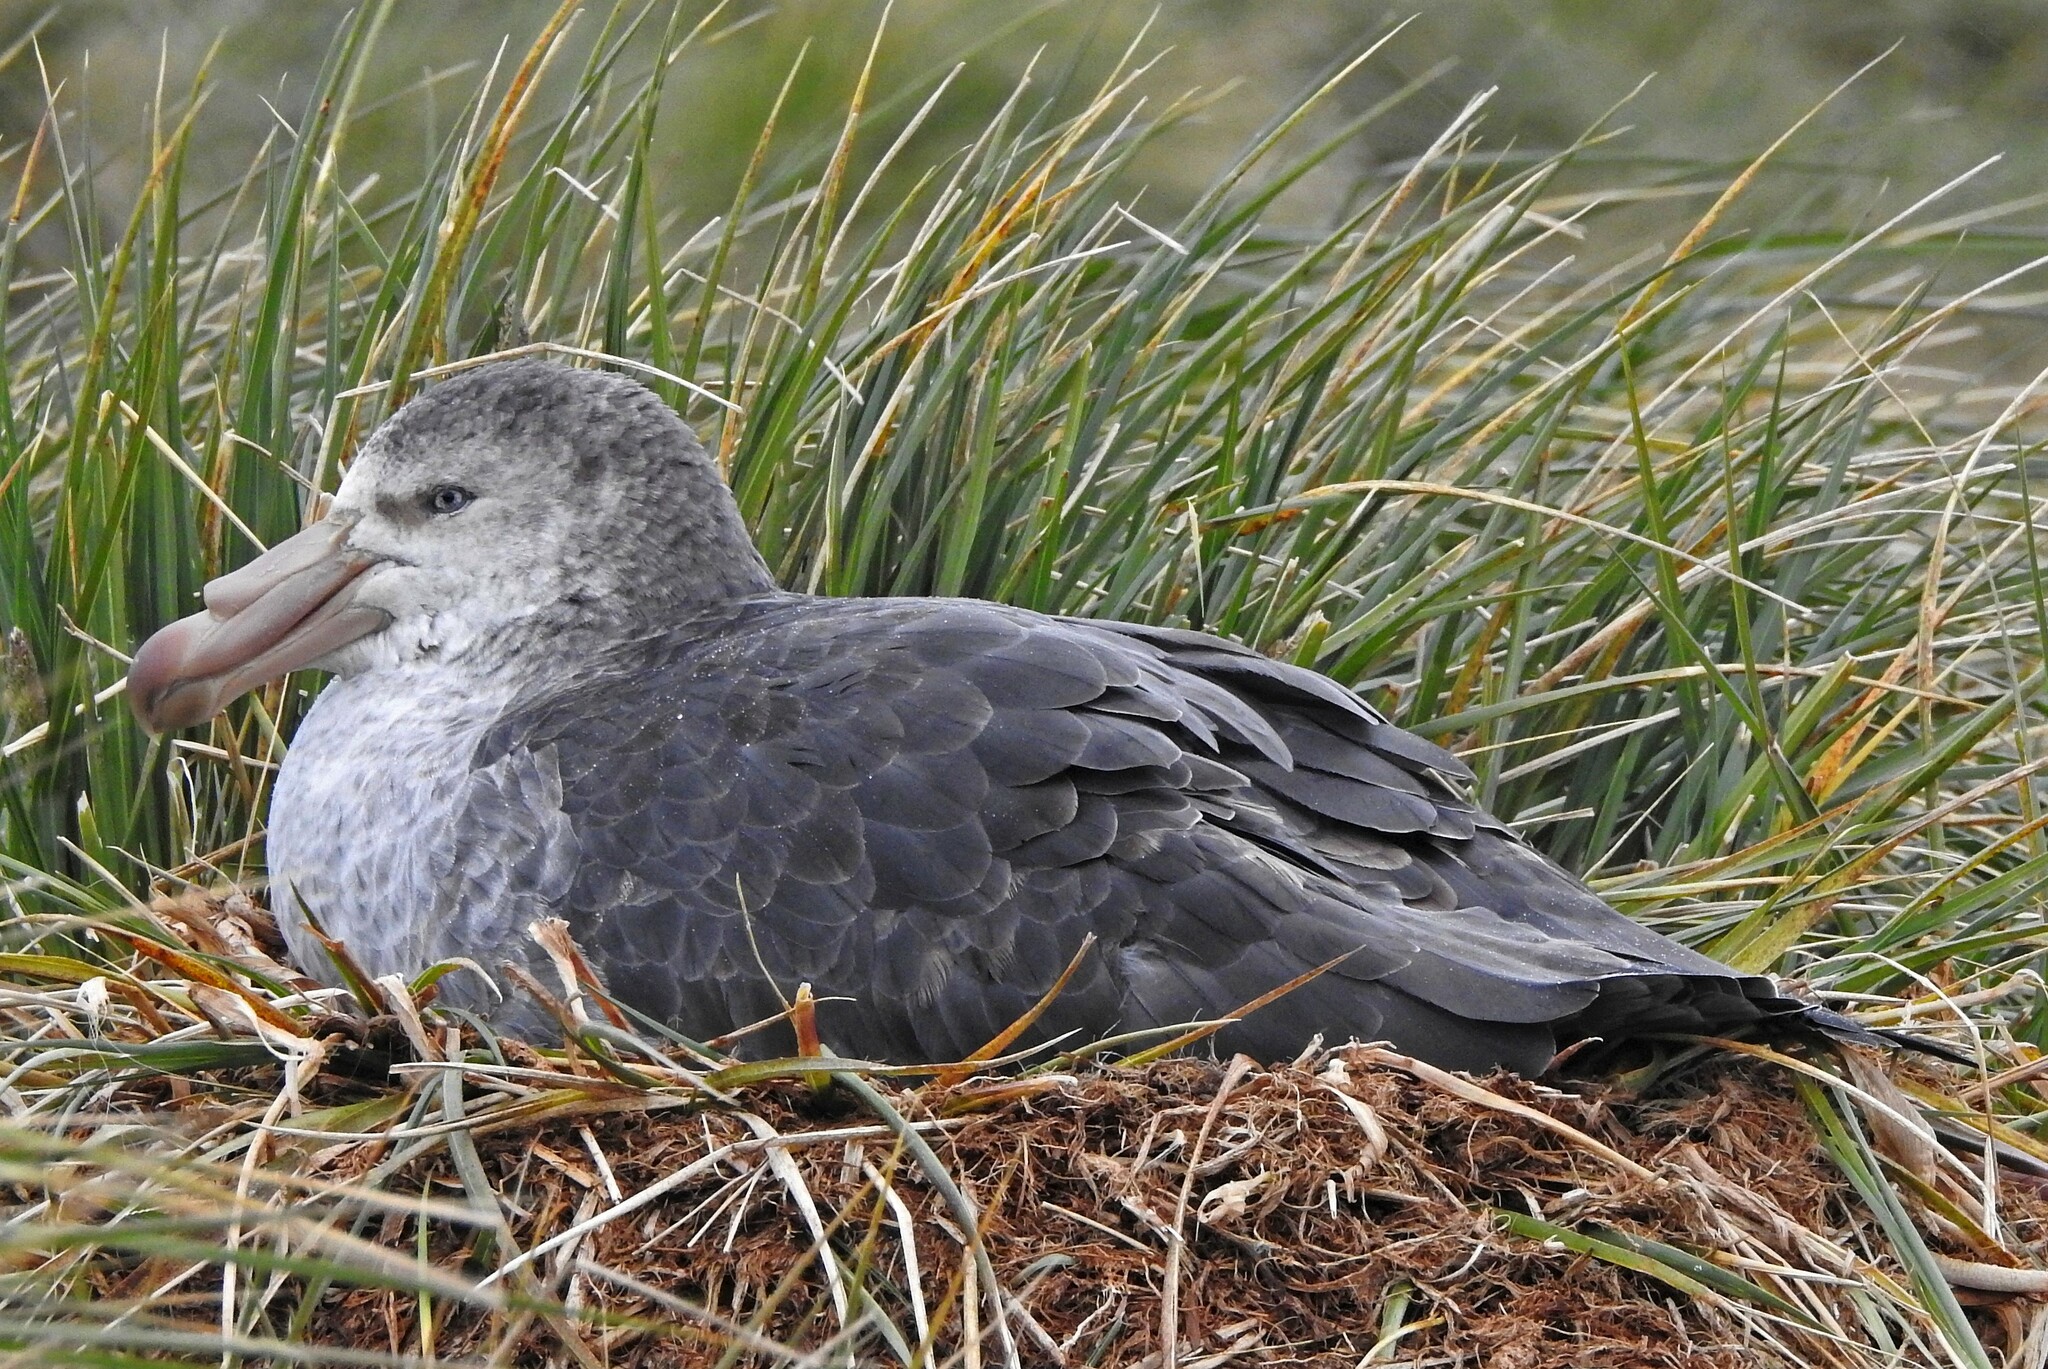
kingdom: Animalia
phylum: Chordata
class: Aves
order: Procellariiformes
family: Procellariidae
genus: Macronectes
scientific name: Macronectes halli
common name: Northern giant petrel
